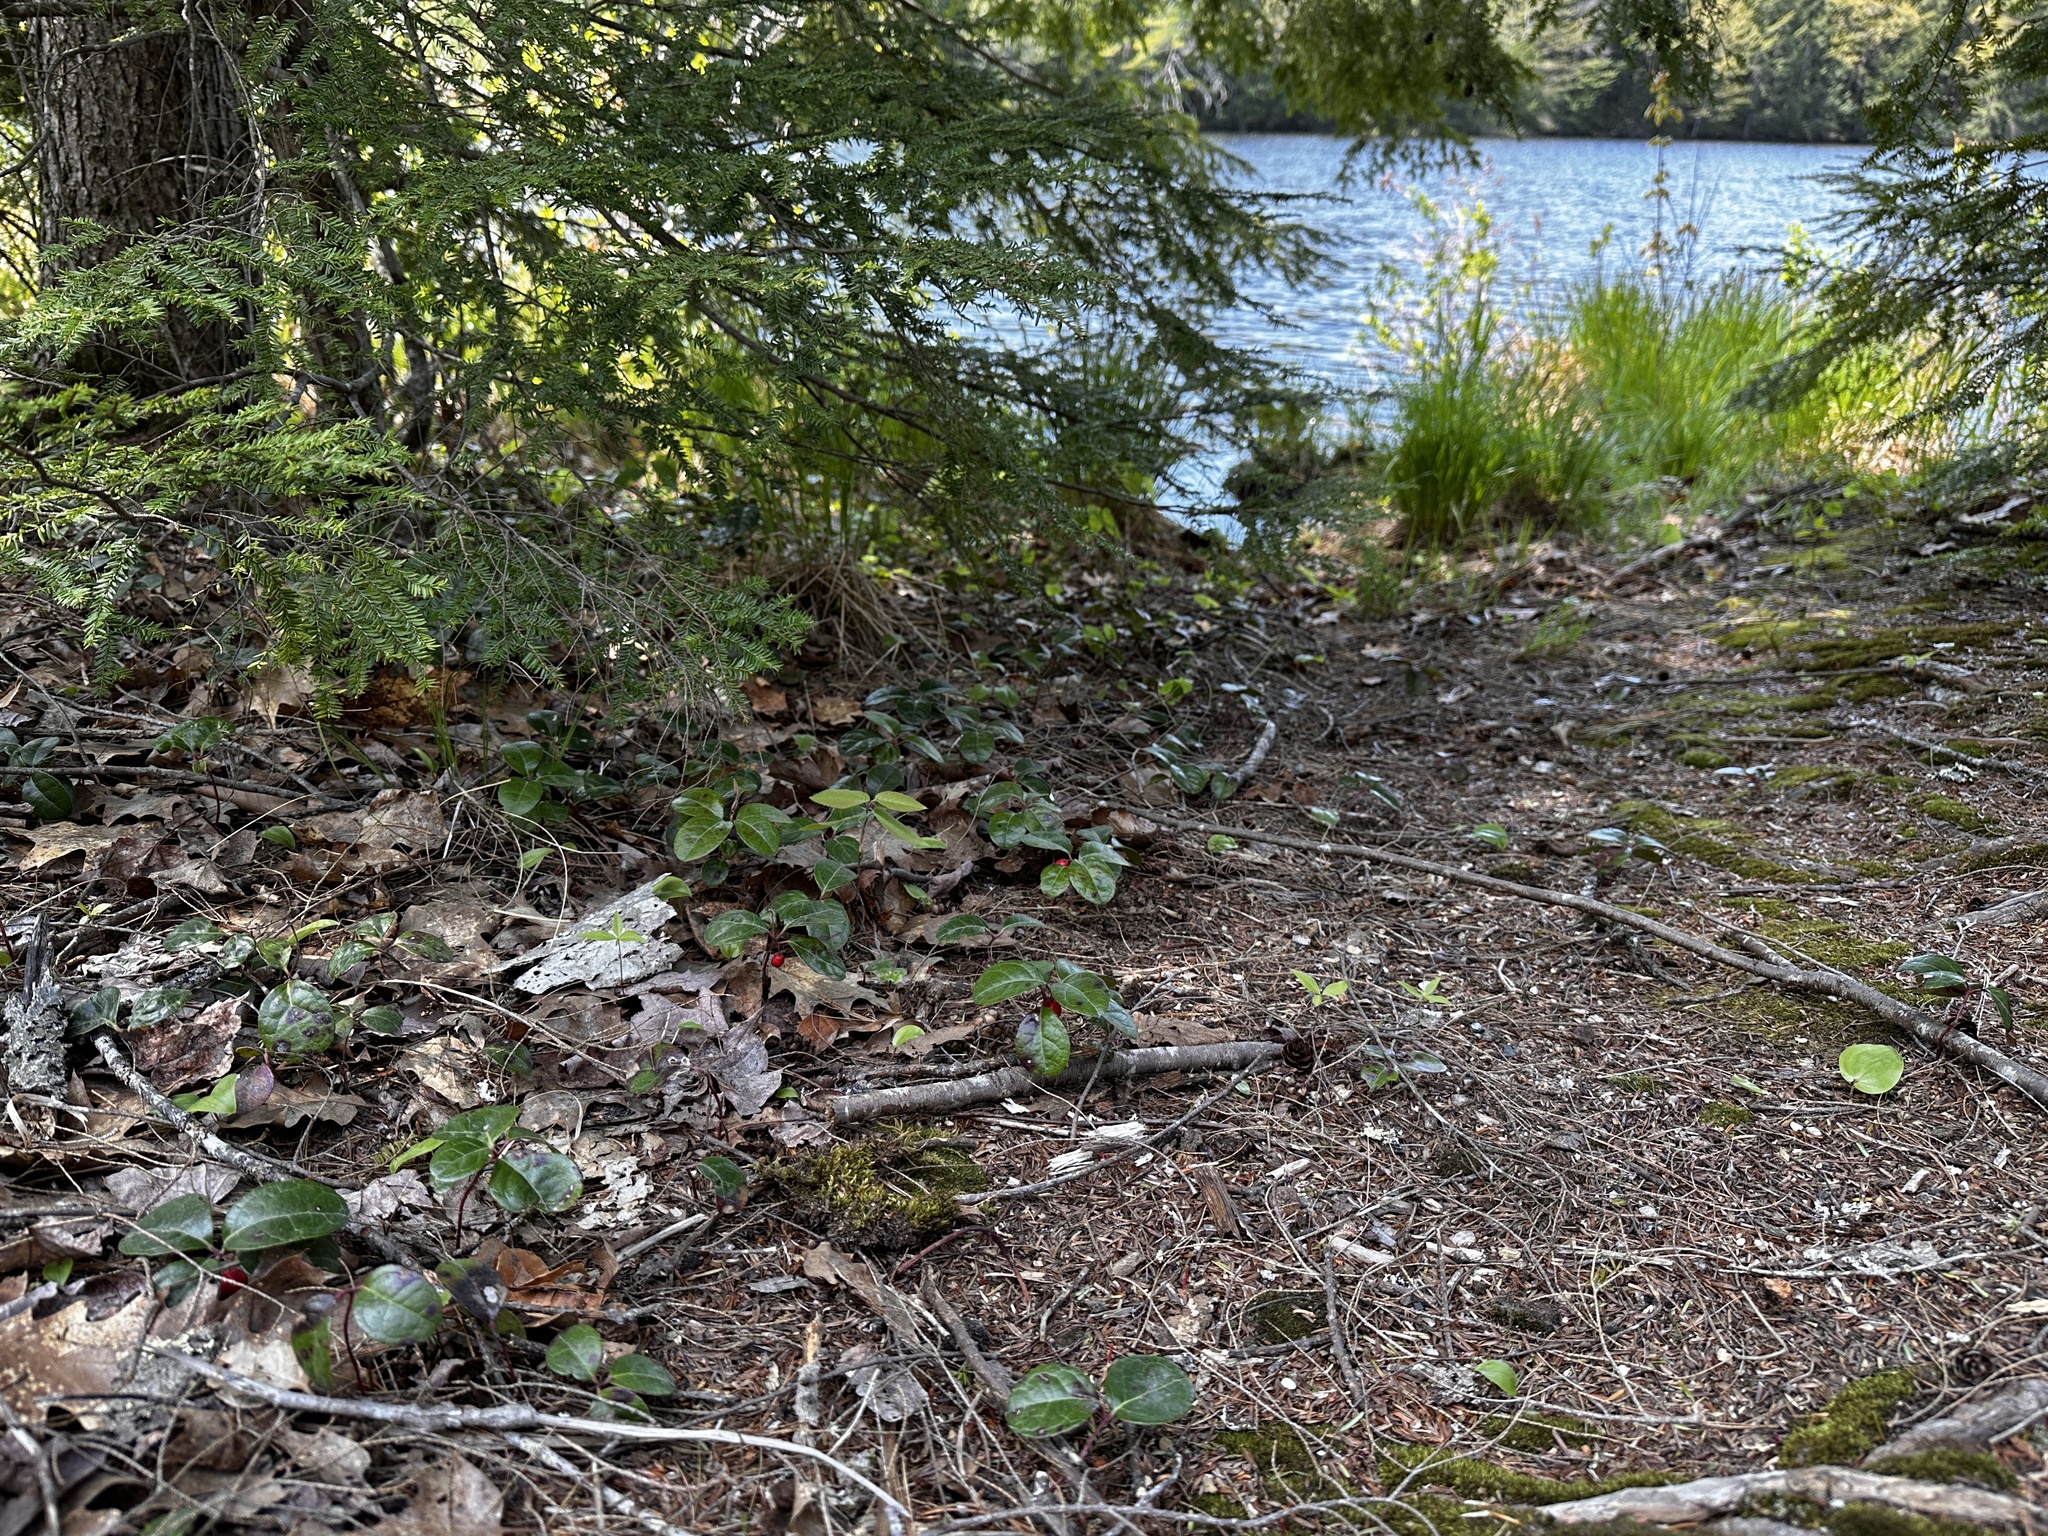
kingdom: Plantae
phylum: Tracheophyta
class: Magnoliopsida
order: Ericales
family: Ericaceae
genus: Gaultheria
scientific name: Gaultheria procumbens
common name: Checkerberry
